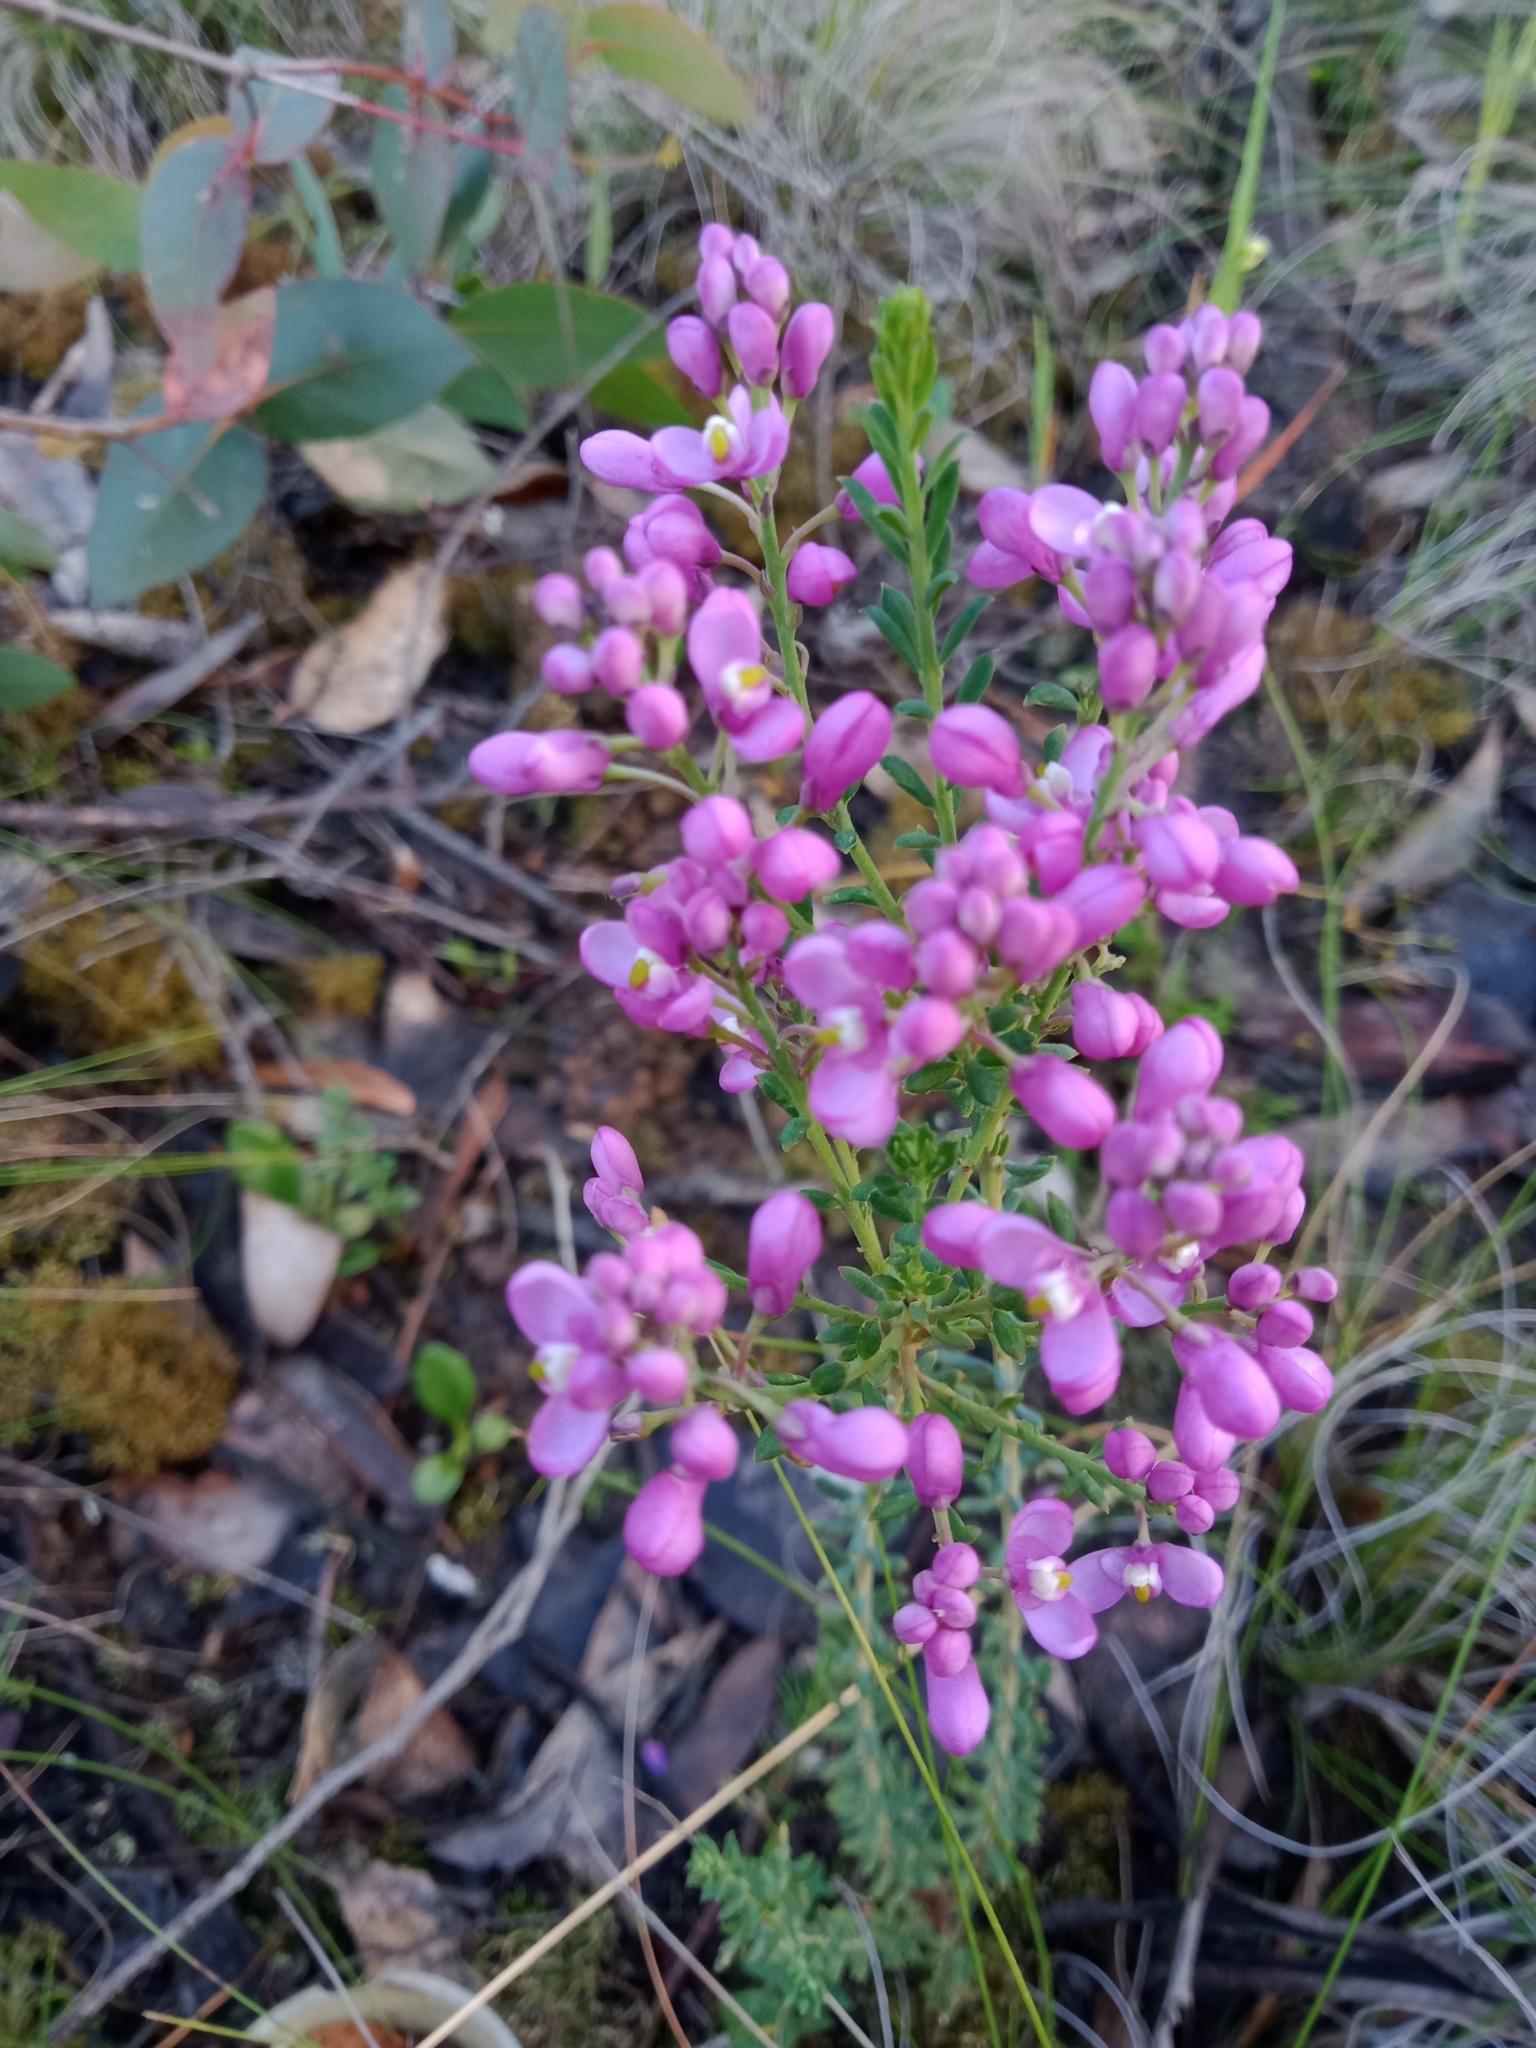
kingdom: Plantae
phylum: Tracheophyta
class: Magnoliopsida
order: Fabales
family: Polygalaceae
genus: Comesperma
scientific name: Comesperma ericinum
